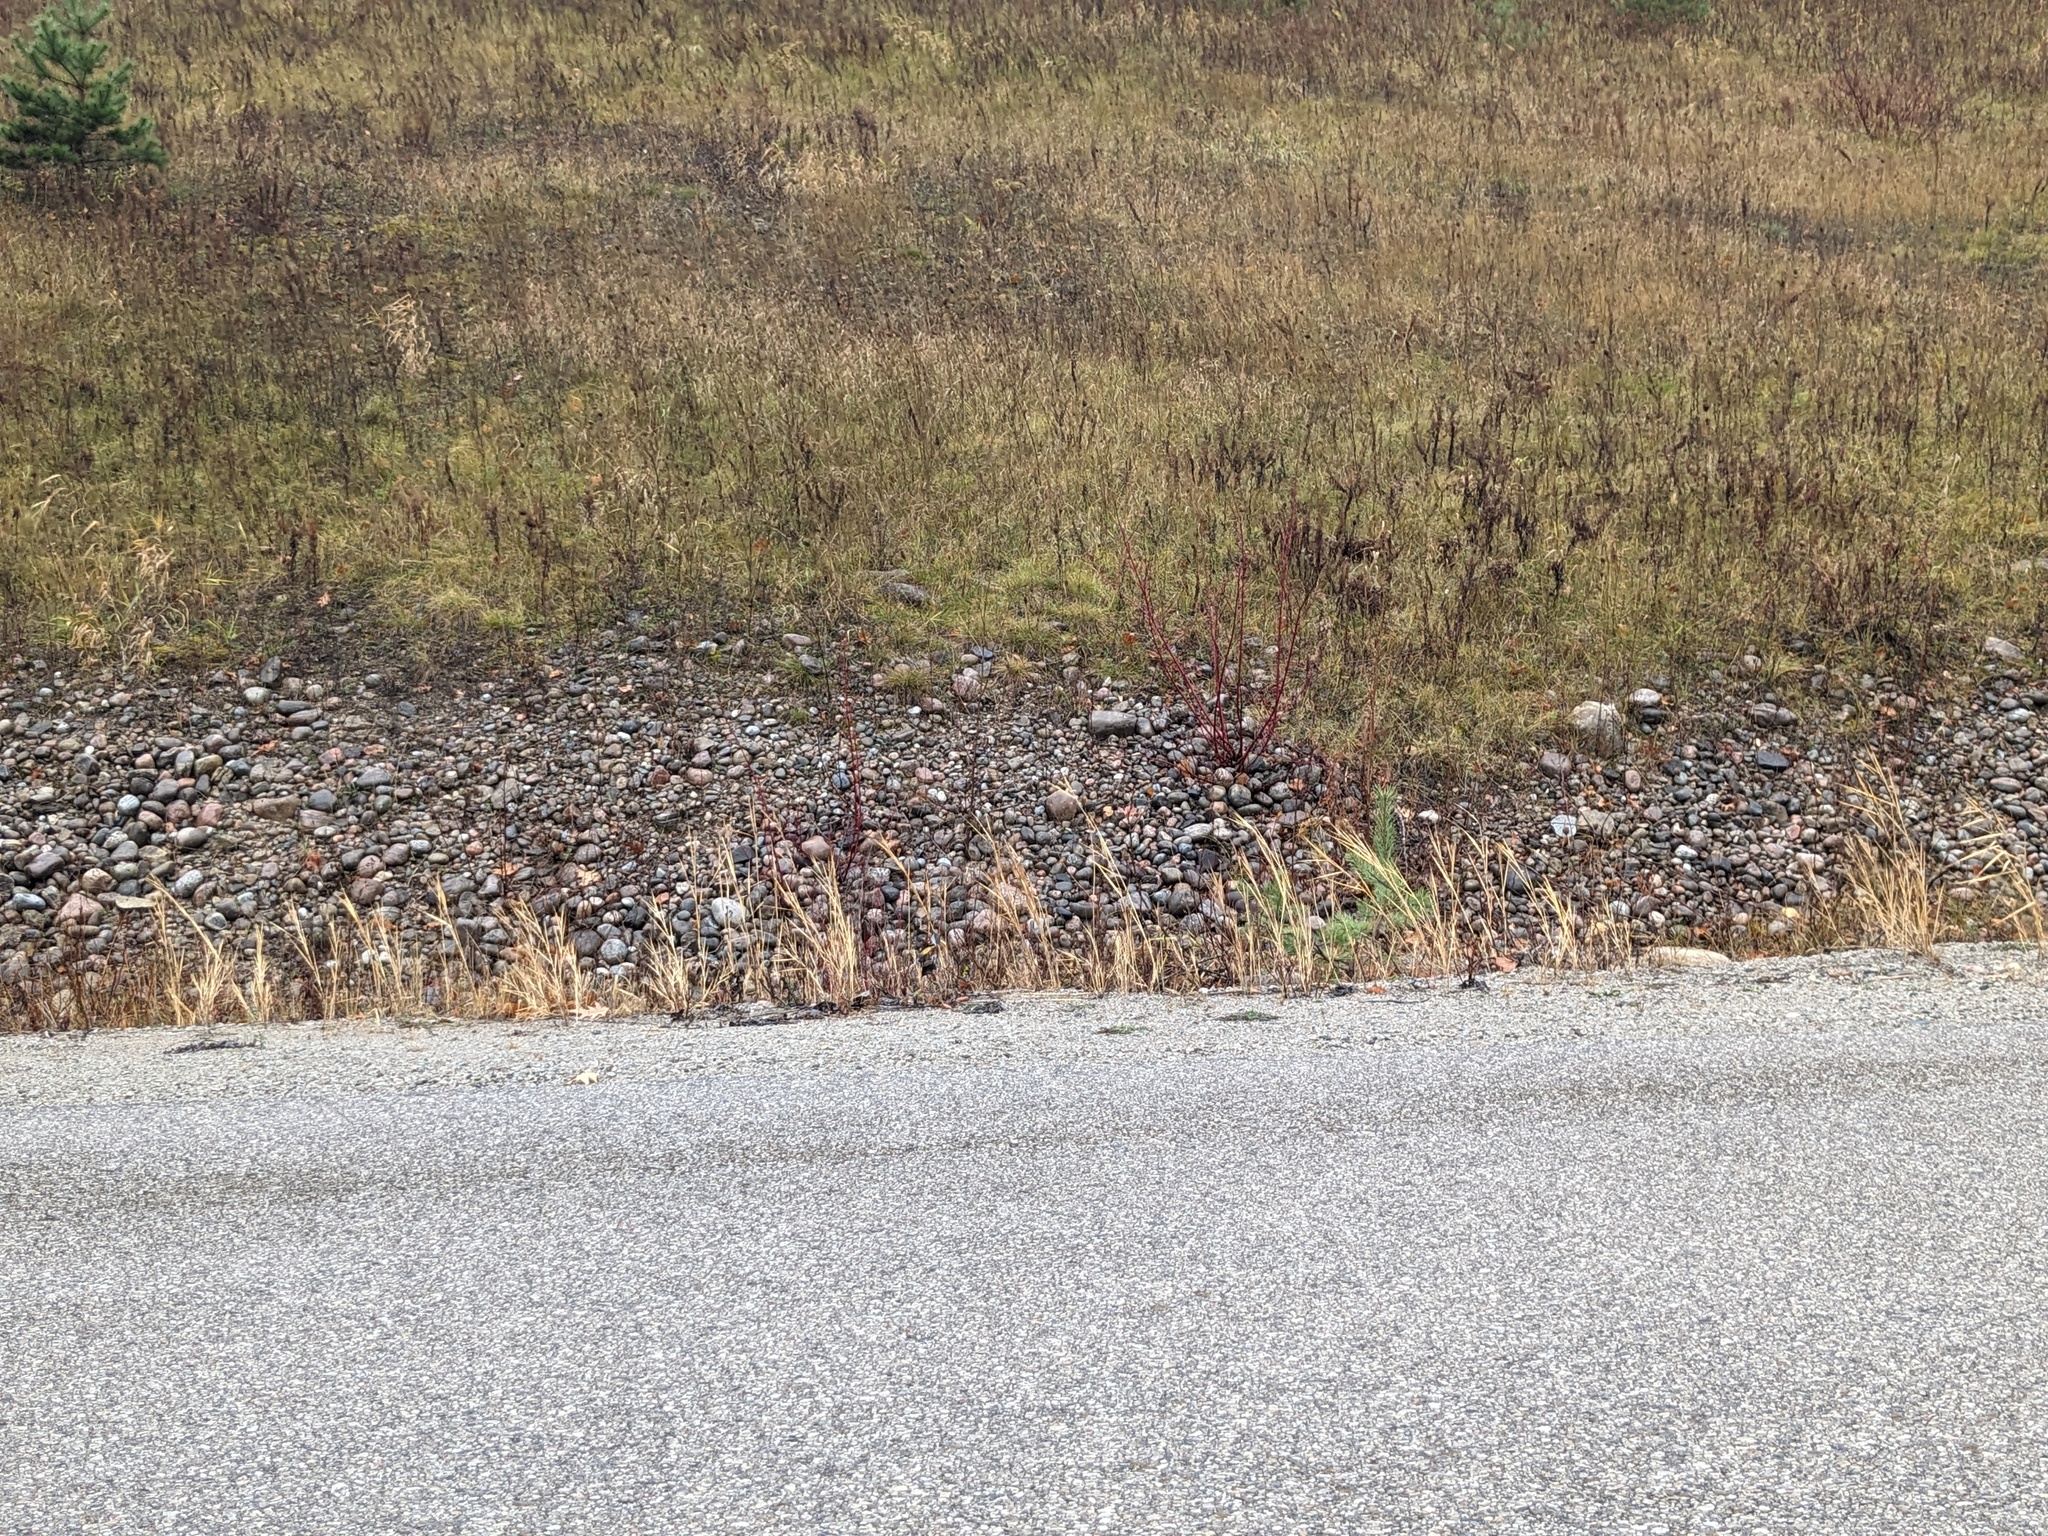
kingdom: Plantae
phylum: Tracheophyta
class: Liliopsida
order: Poales
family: Poaceae
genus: Phragmites
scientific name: Phragmites australis
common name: Common reed
